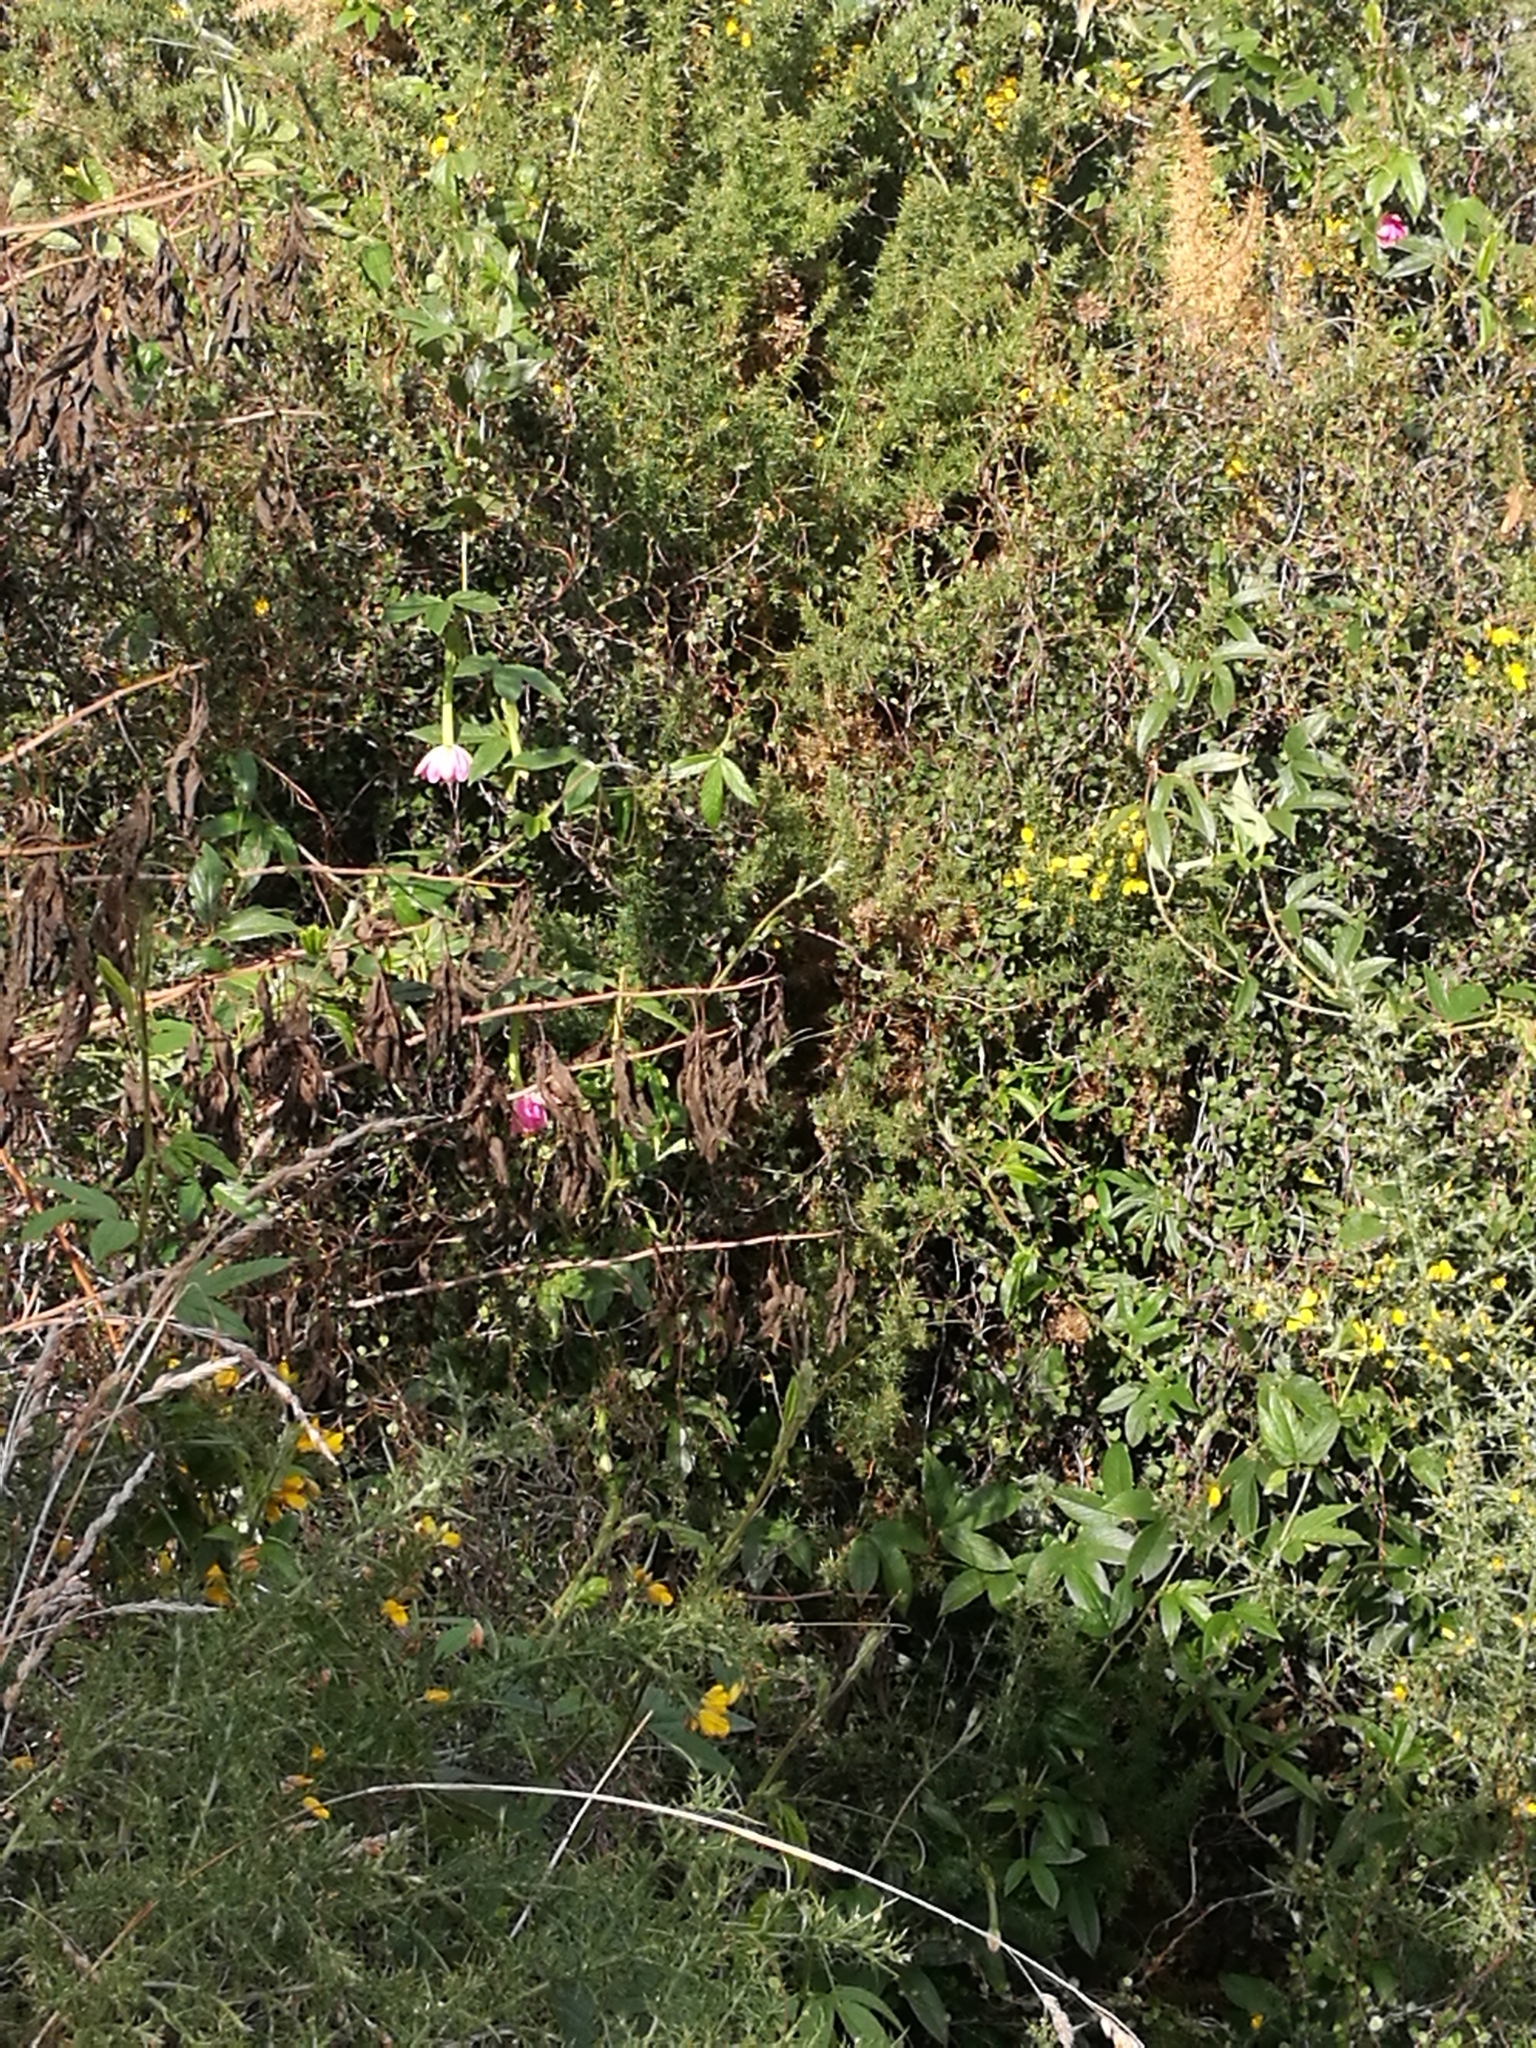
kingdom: Plantae
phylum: Tracheophyta
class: Magnoliopsida
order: Malpighiales
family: Passifloraceae
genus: Passiflora
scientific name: Passiflora tripartita
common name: Banana poka
